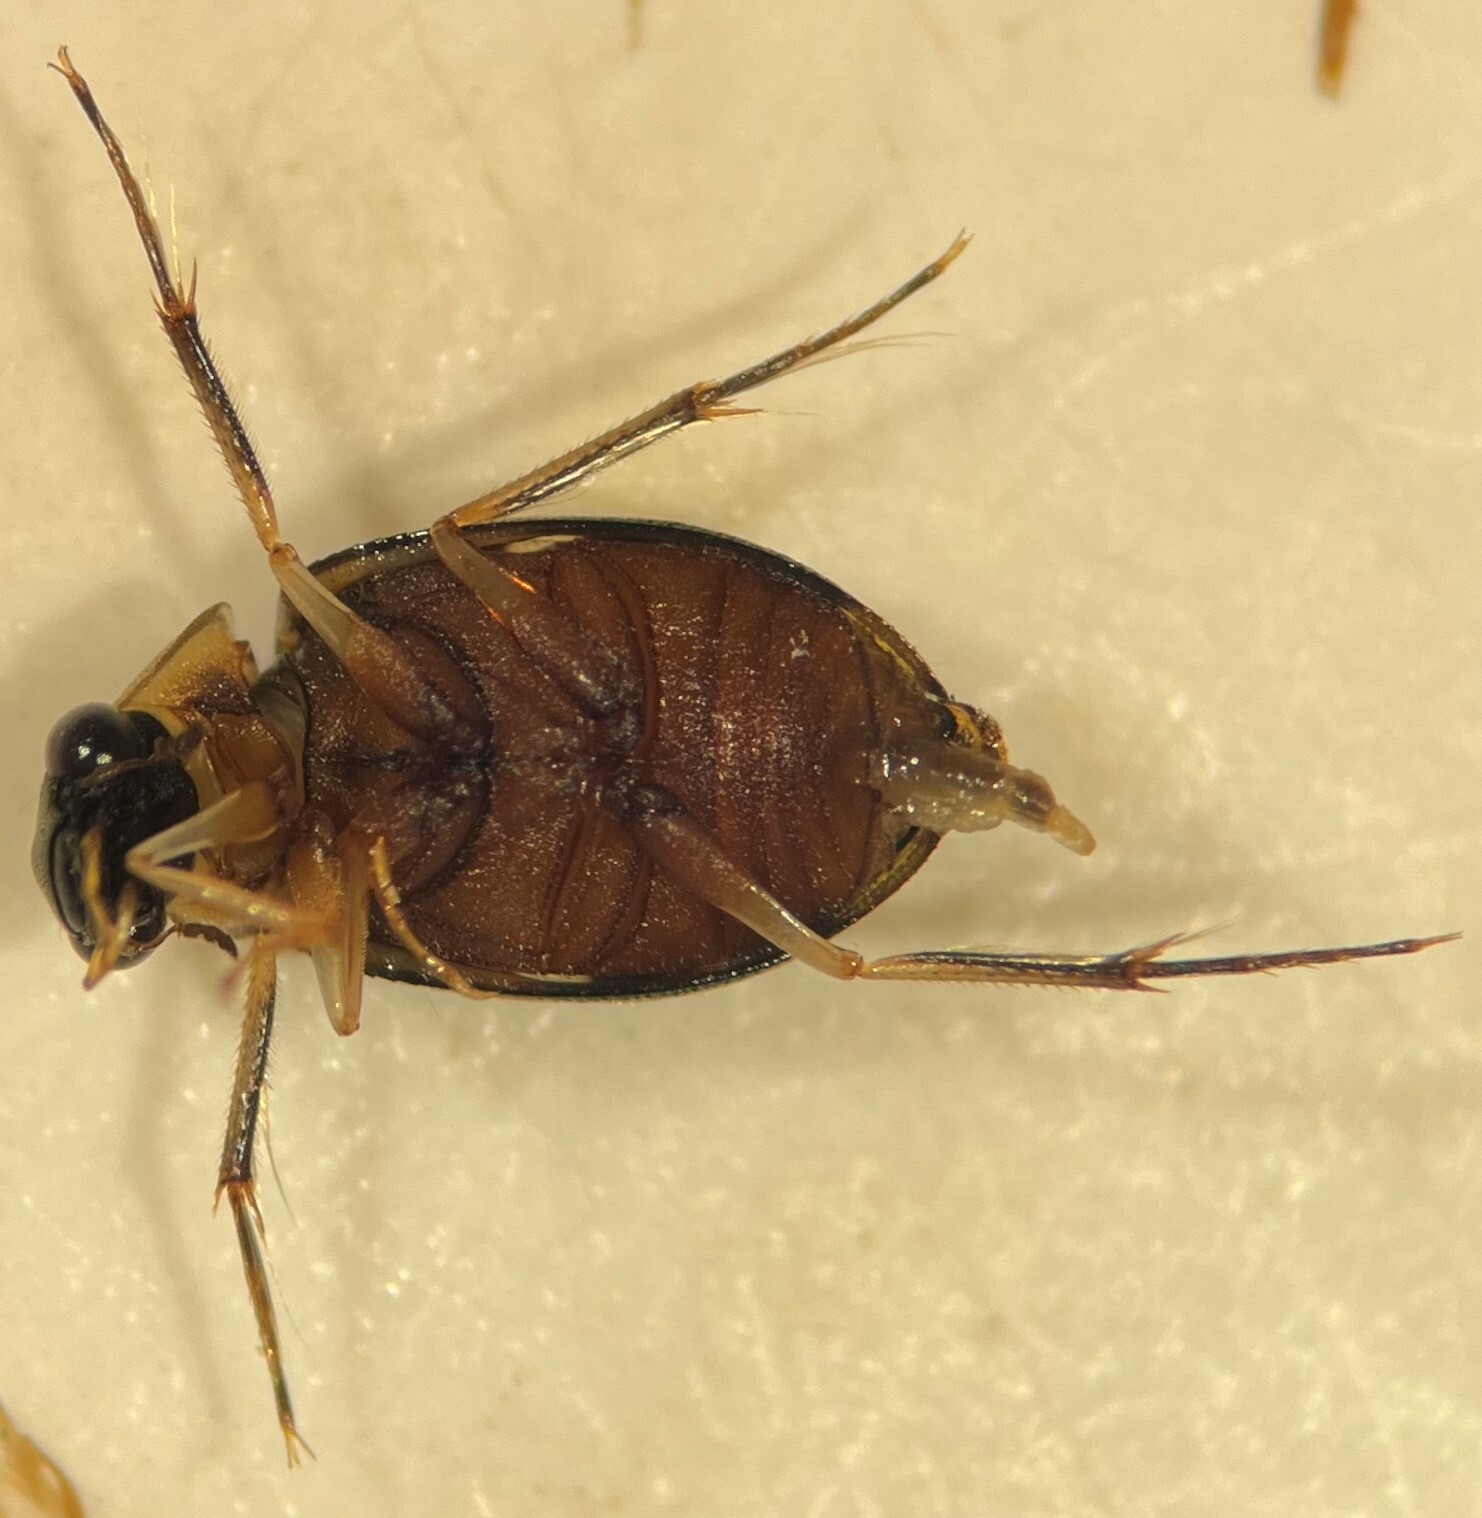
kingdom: Animalia
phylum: Arthropoda
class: Insecta
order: Coleoptera
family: Hydrophilidae
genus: Berosus
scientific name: Berosus rugulosus
